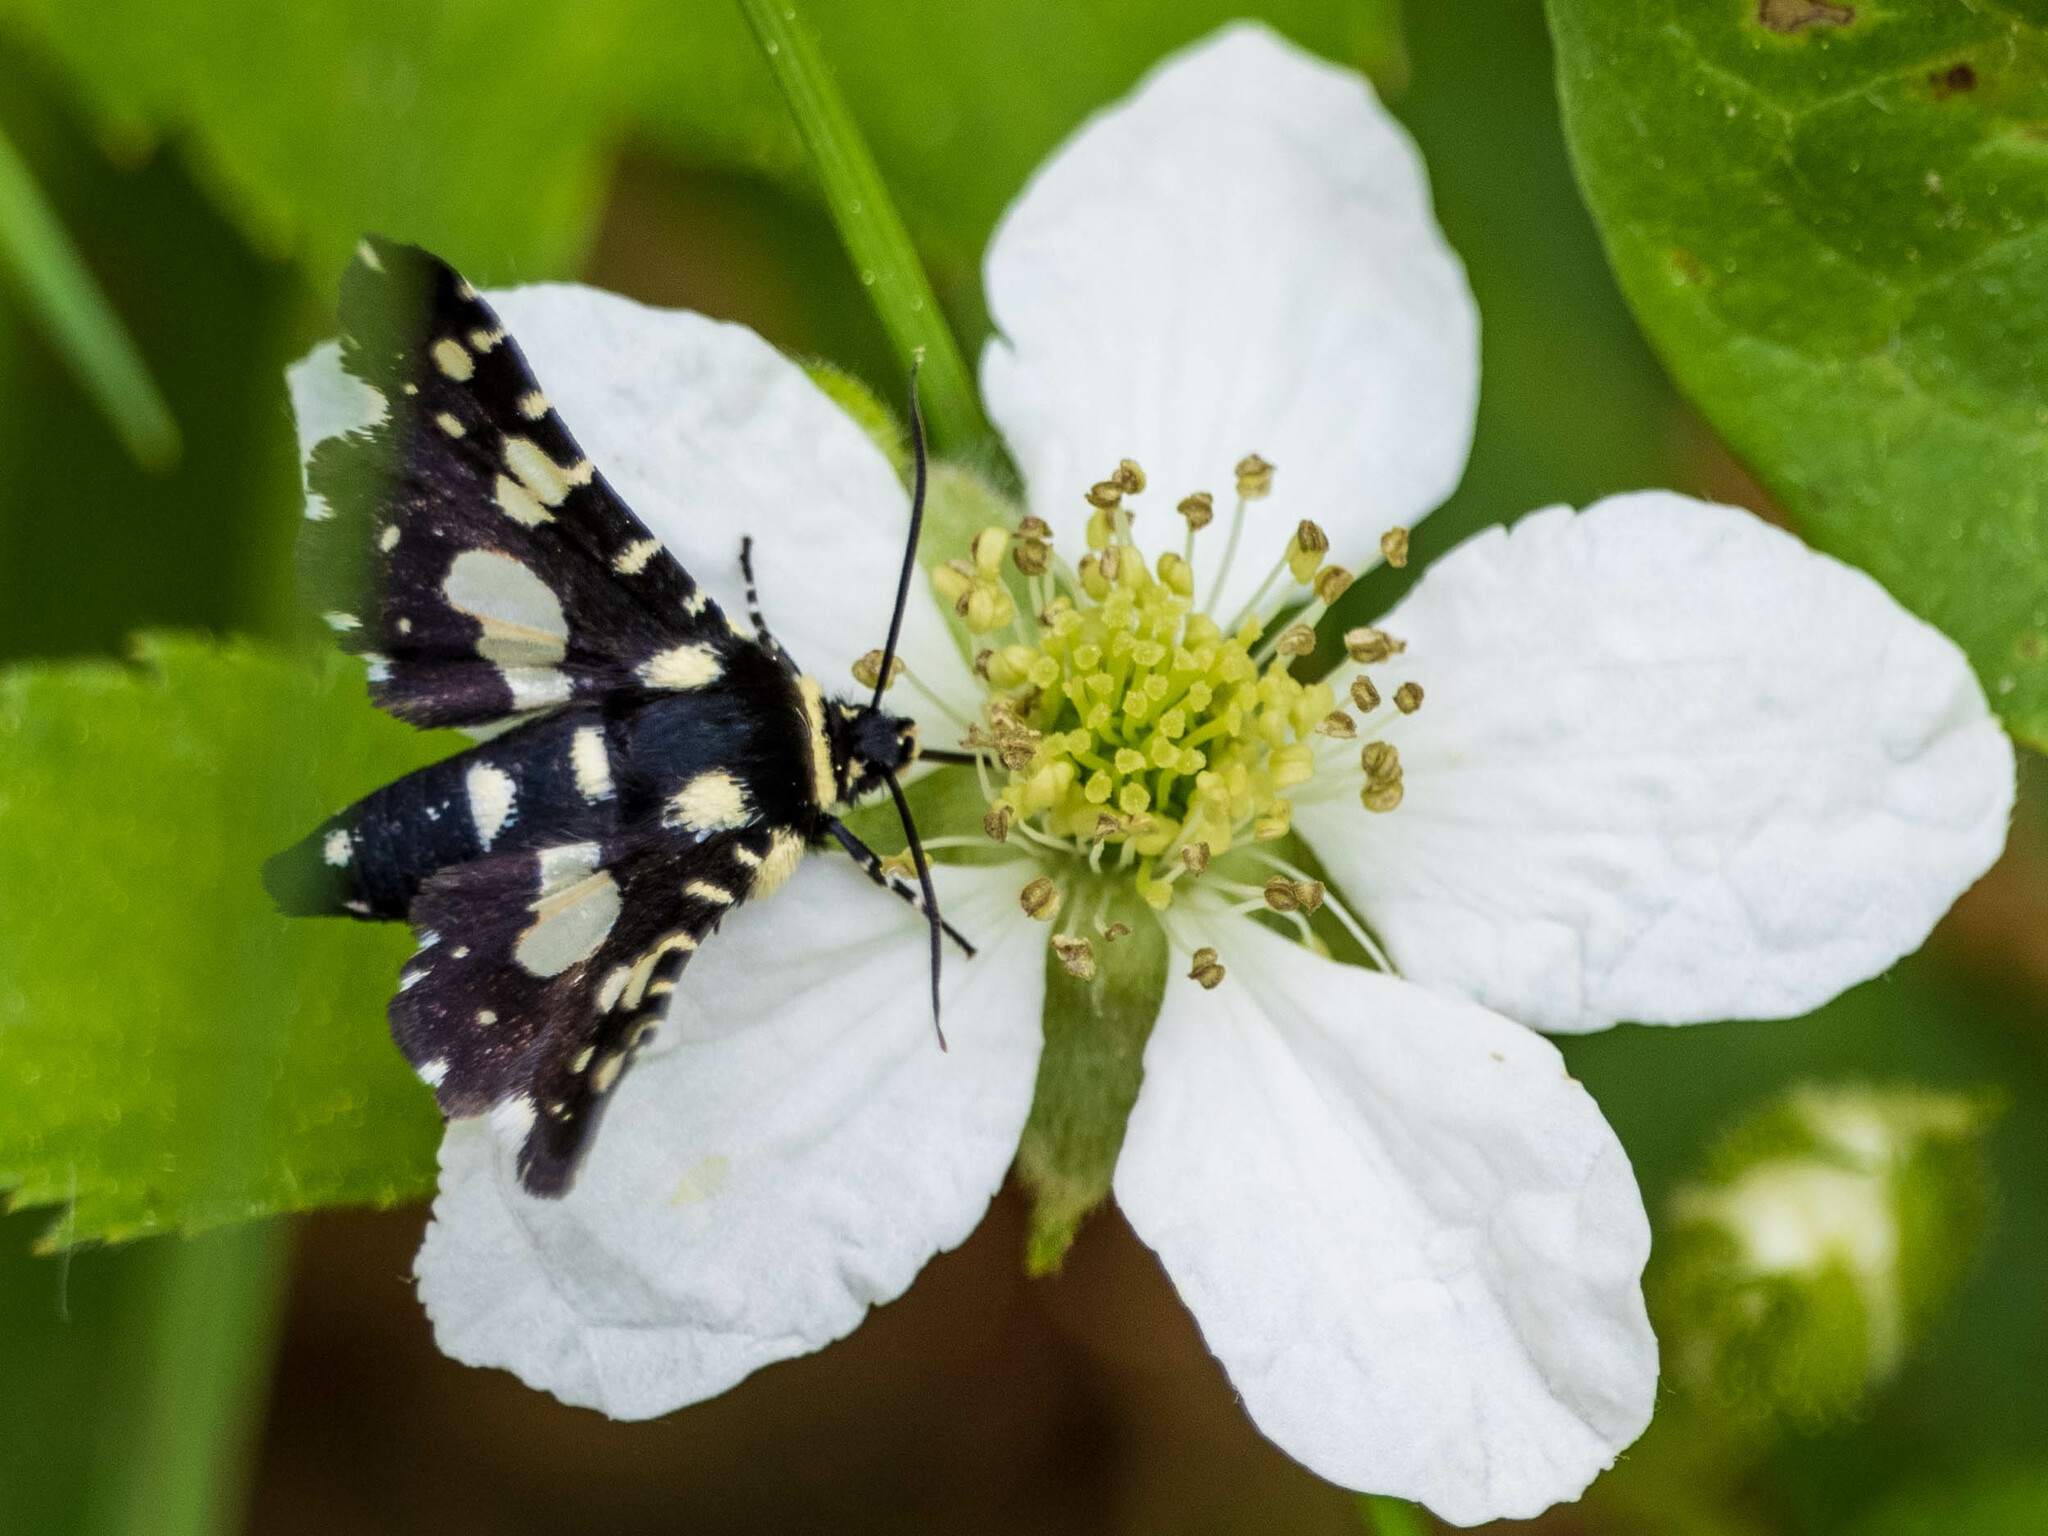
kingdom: Animalia
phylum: Arthropoda
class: Insecta
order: Lepidoptera
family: Thyrididae
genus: Pseudothyris
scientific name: Pseudothyris sepulchralis
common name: Mournful thyris moth
